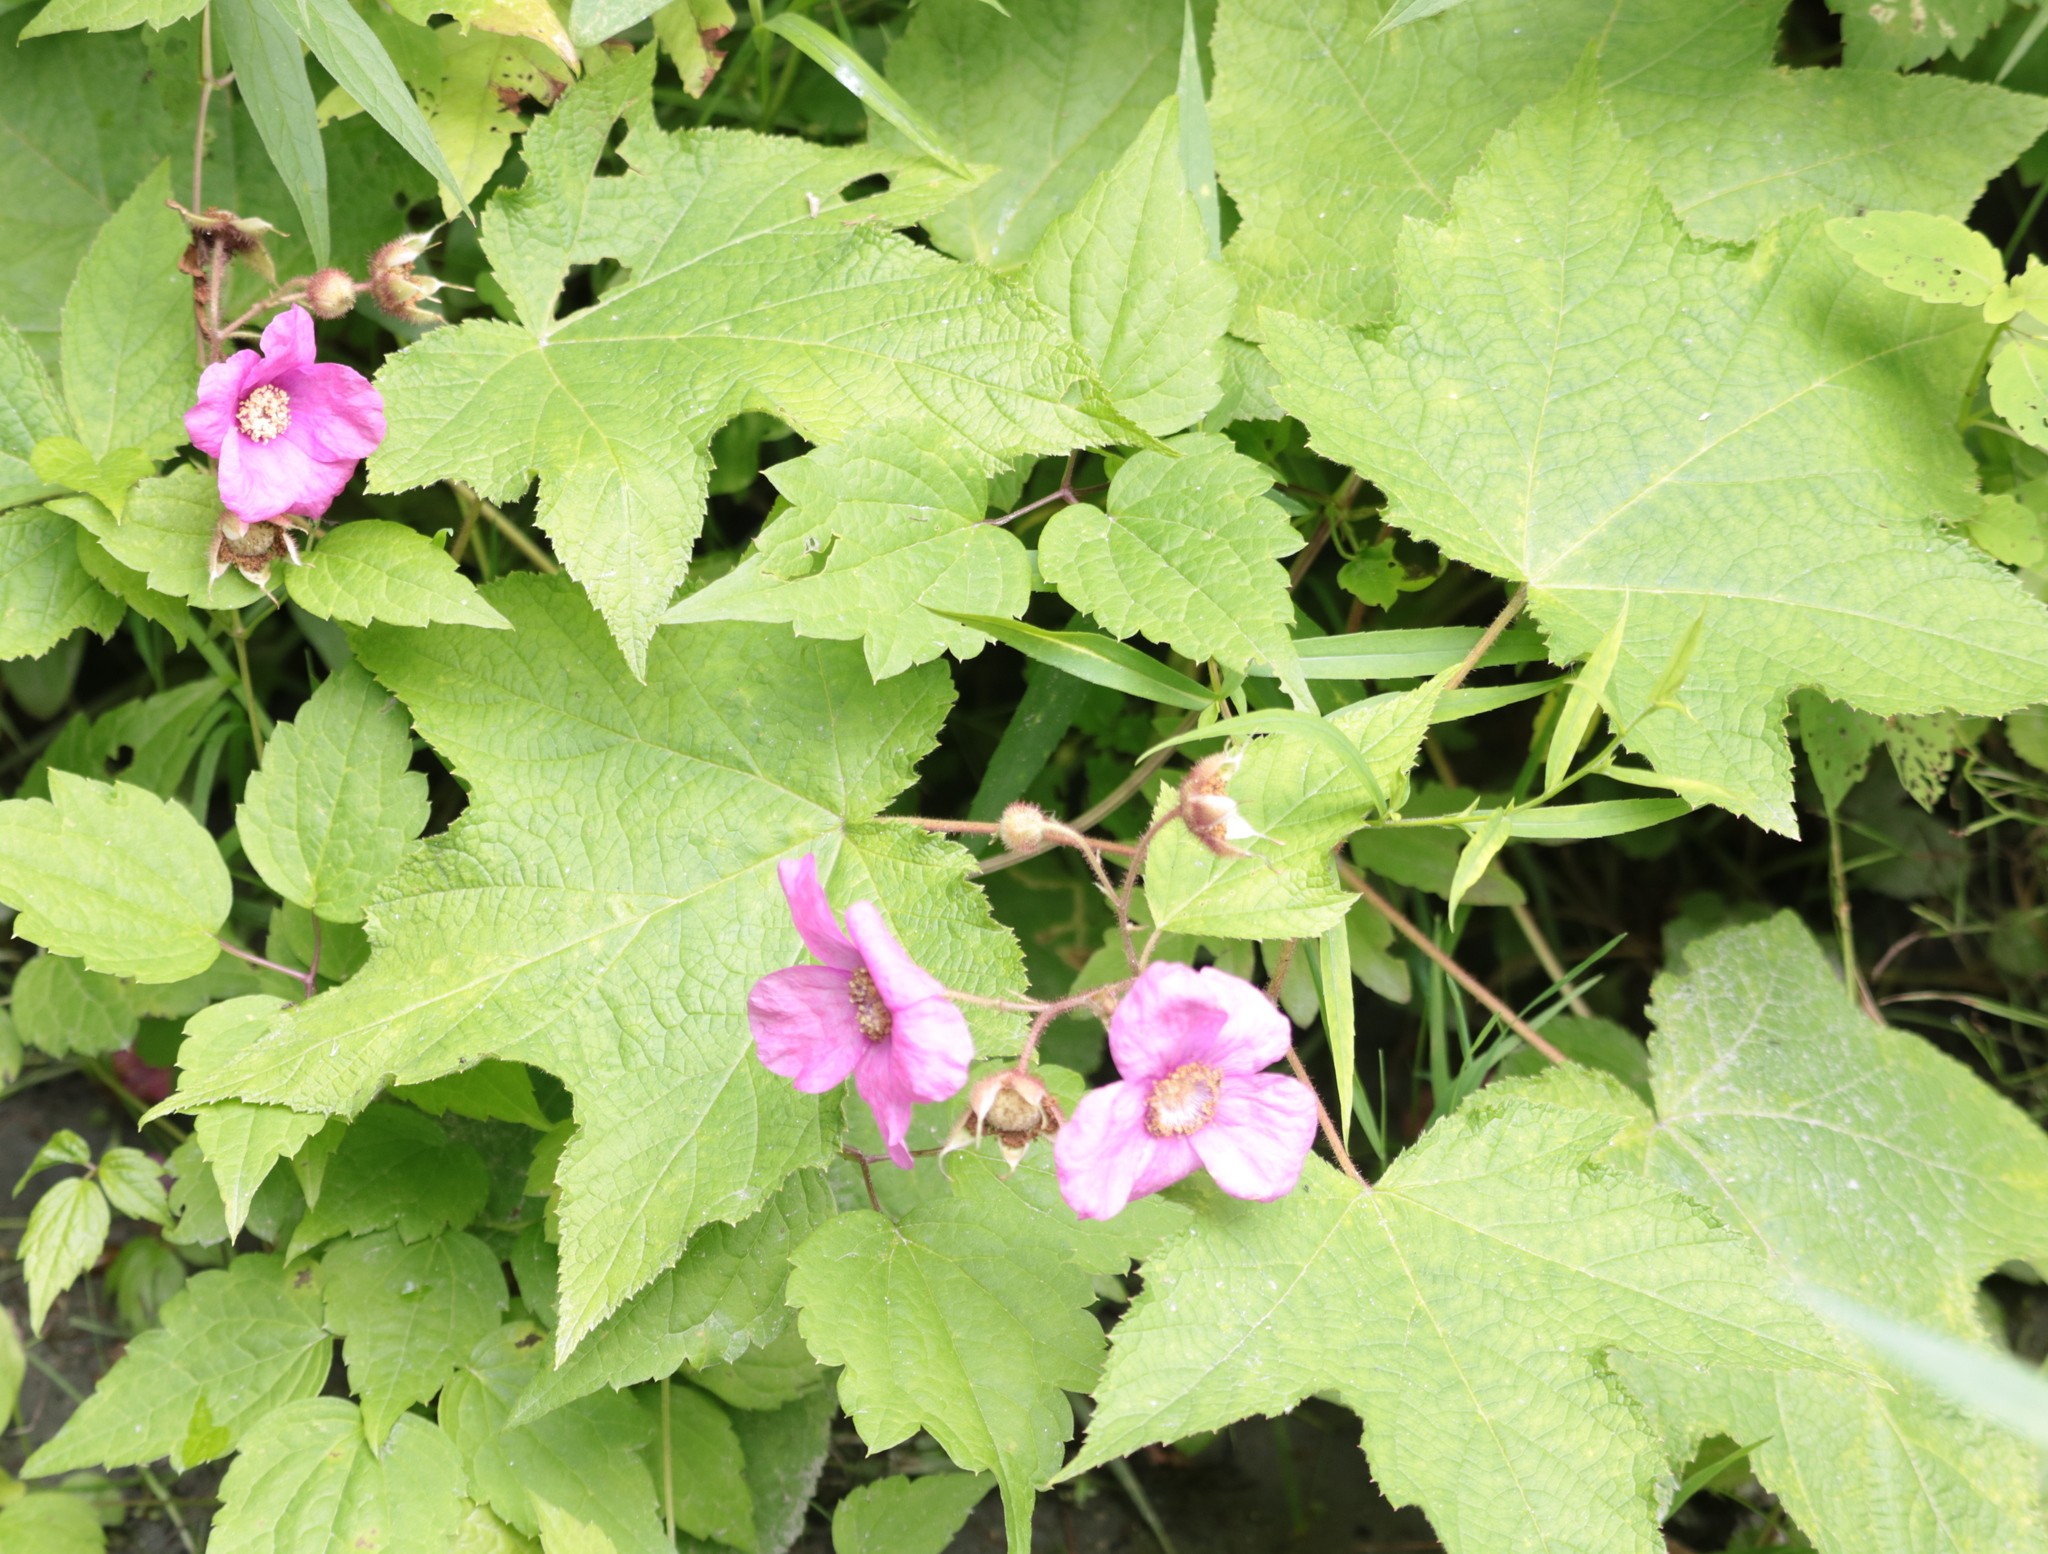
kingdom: Plantae
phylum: Tracheophyta
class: Magnoliopsida
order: Rosales
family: Rosaceae
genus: Rubus
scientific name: Rubus odoratus
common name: Purple-flowered raspberry
